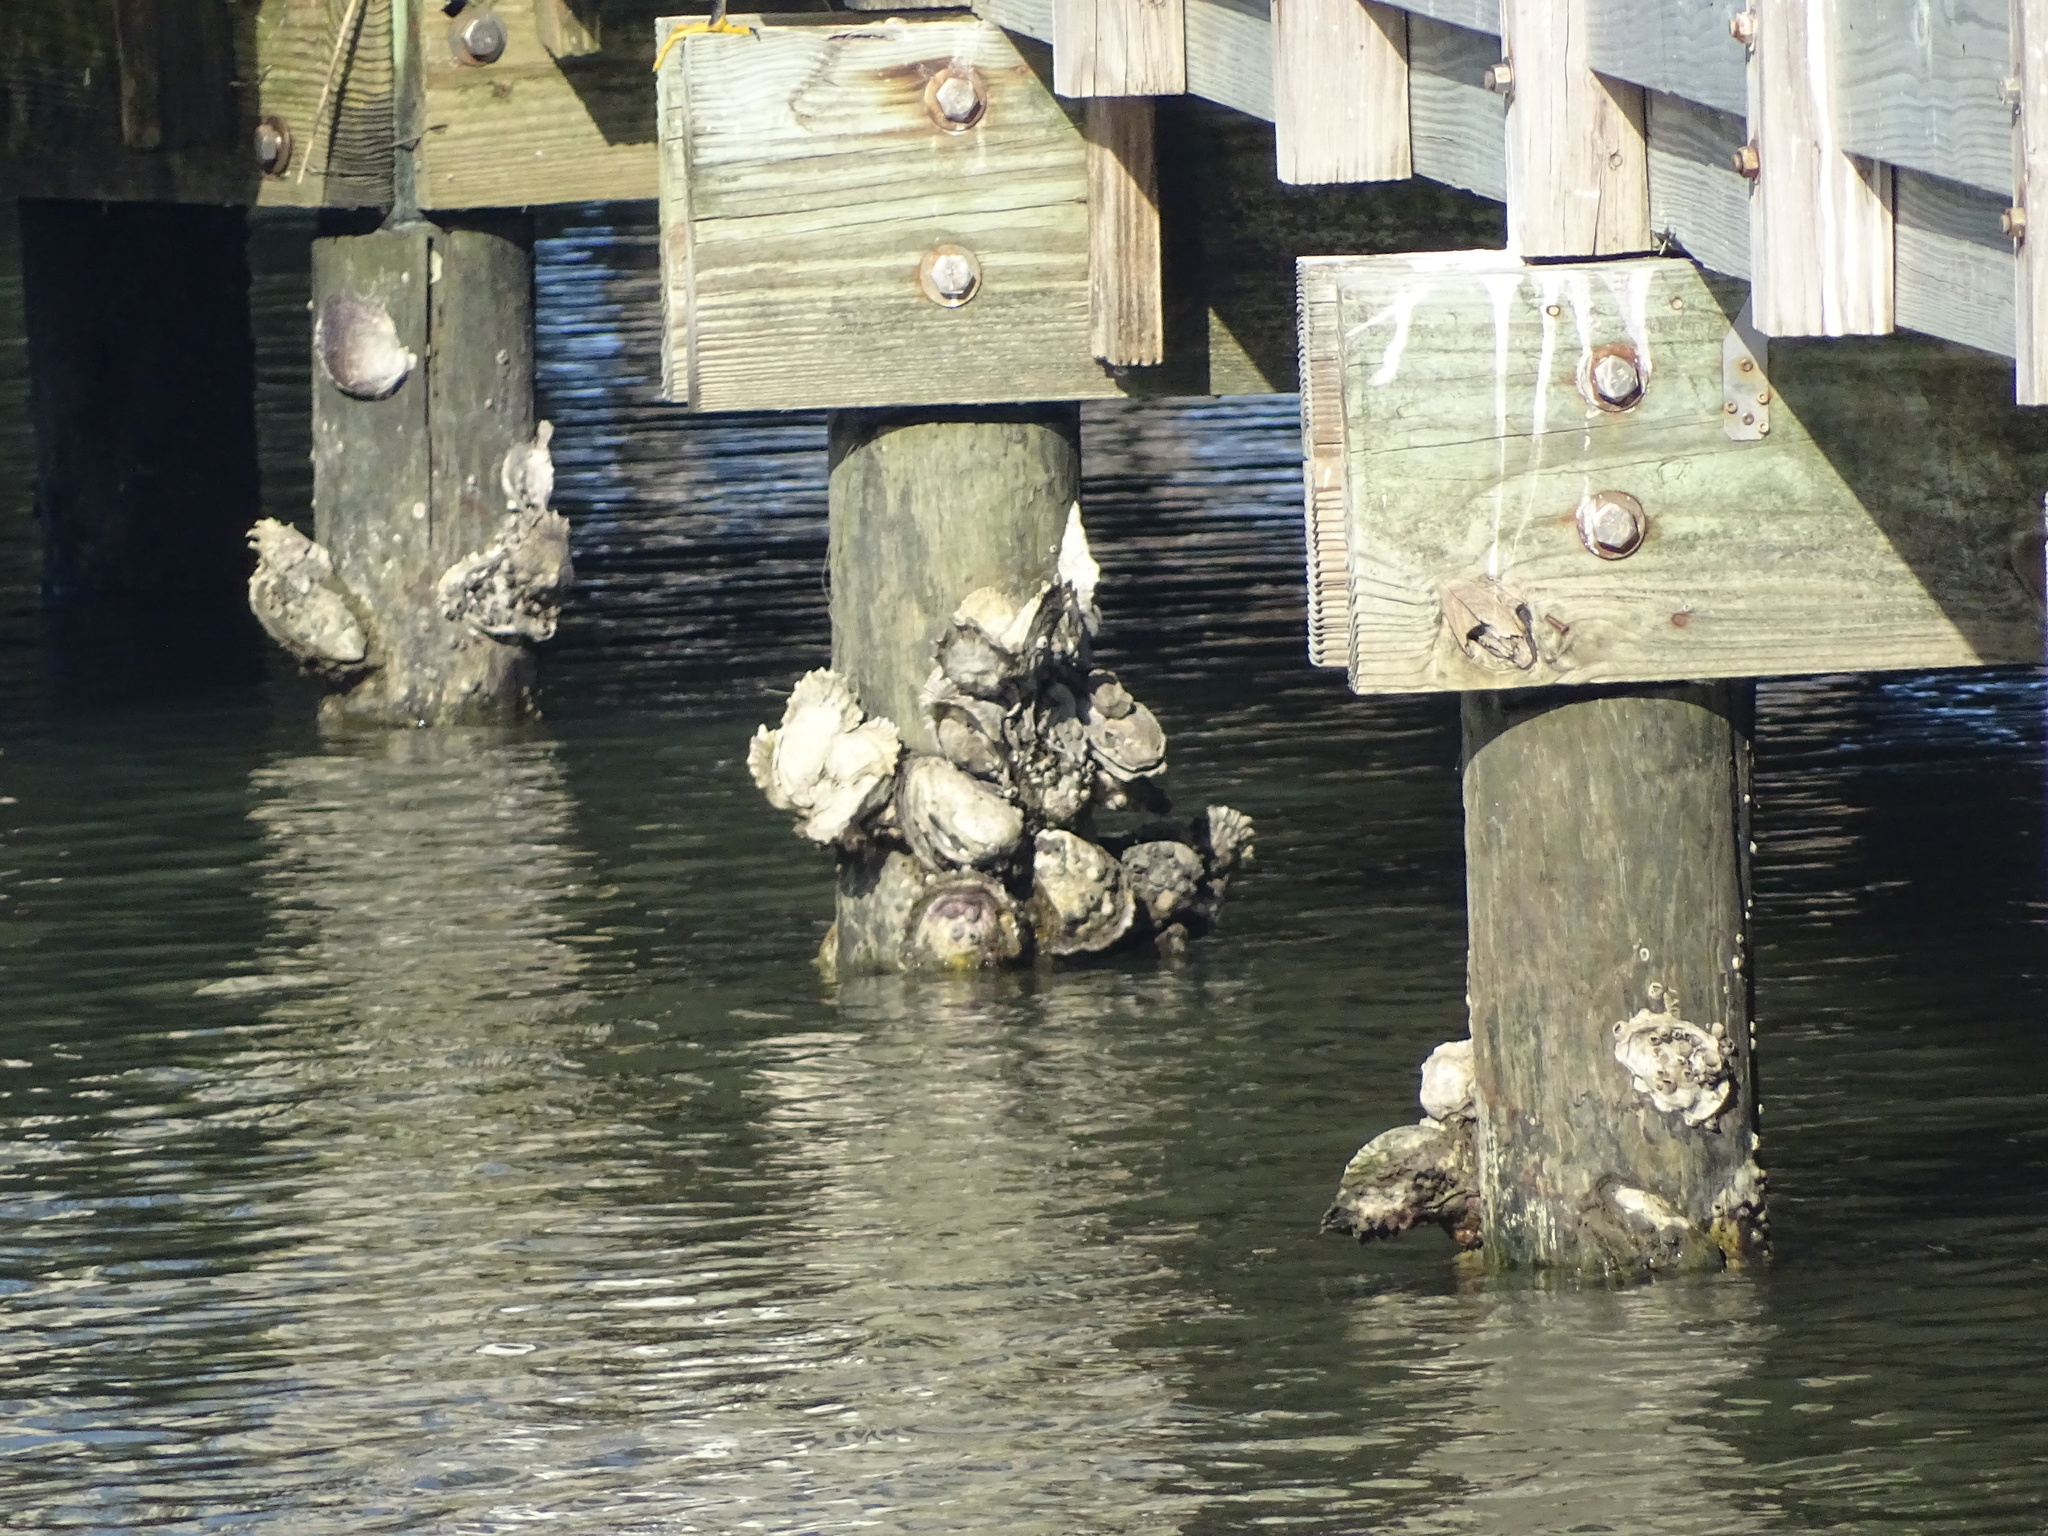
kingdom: Animalia
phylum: Mollusca
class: Bivalvia
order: Ostreida
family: Ostreidae
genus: Crassostrea
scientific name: Crassostrea virginica
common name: American oyster
